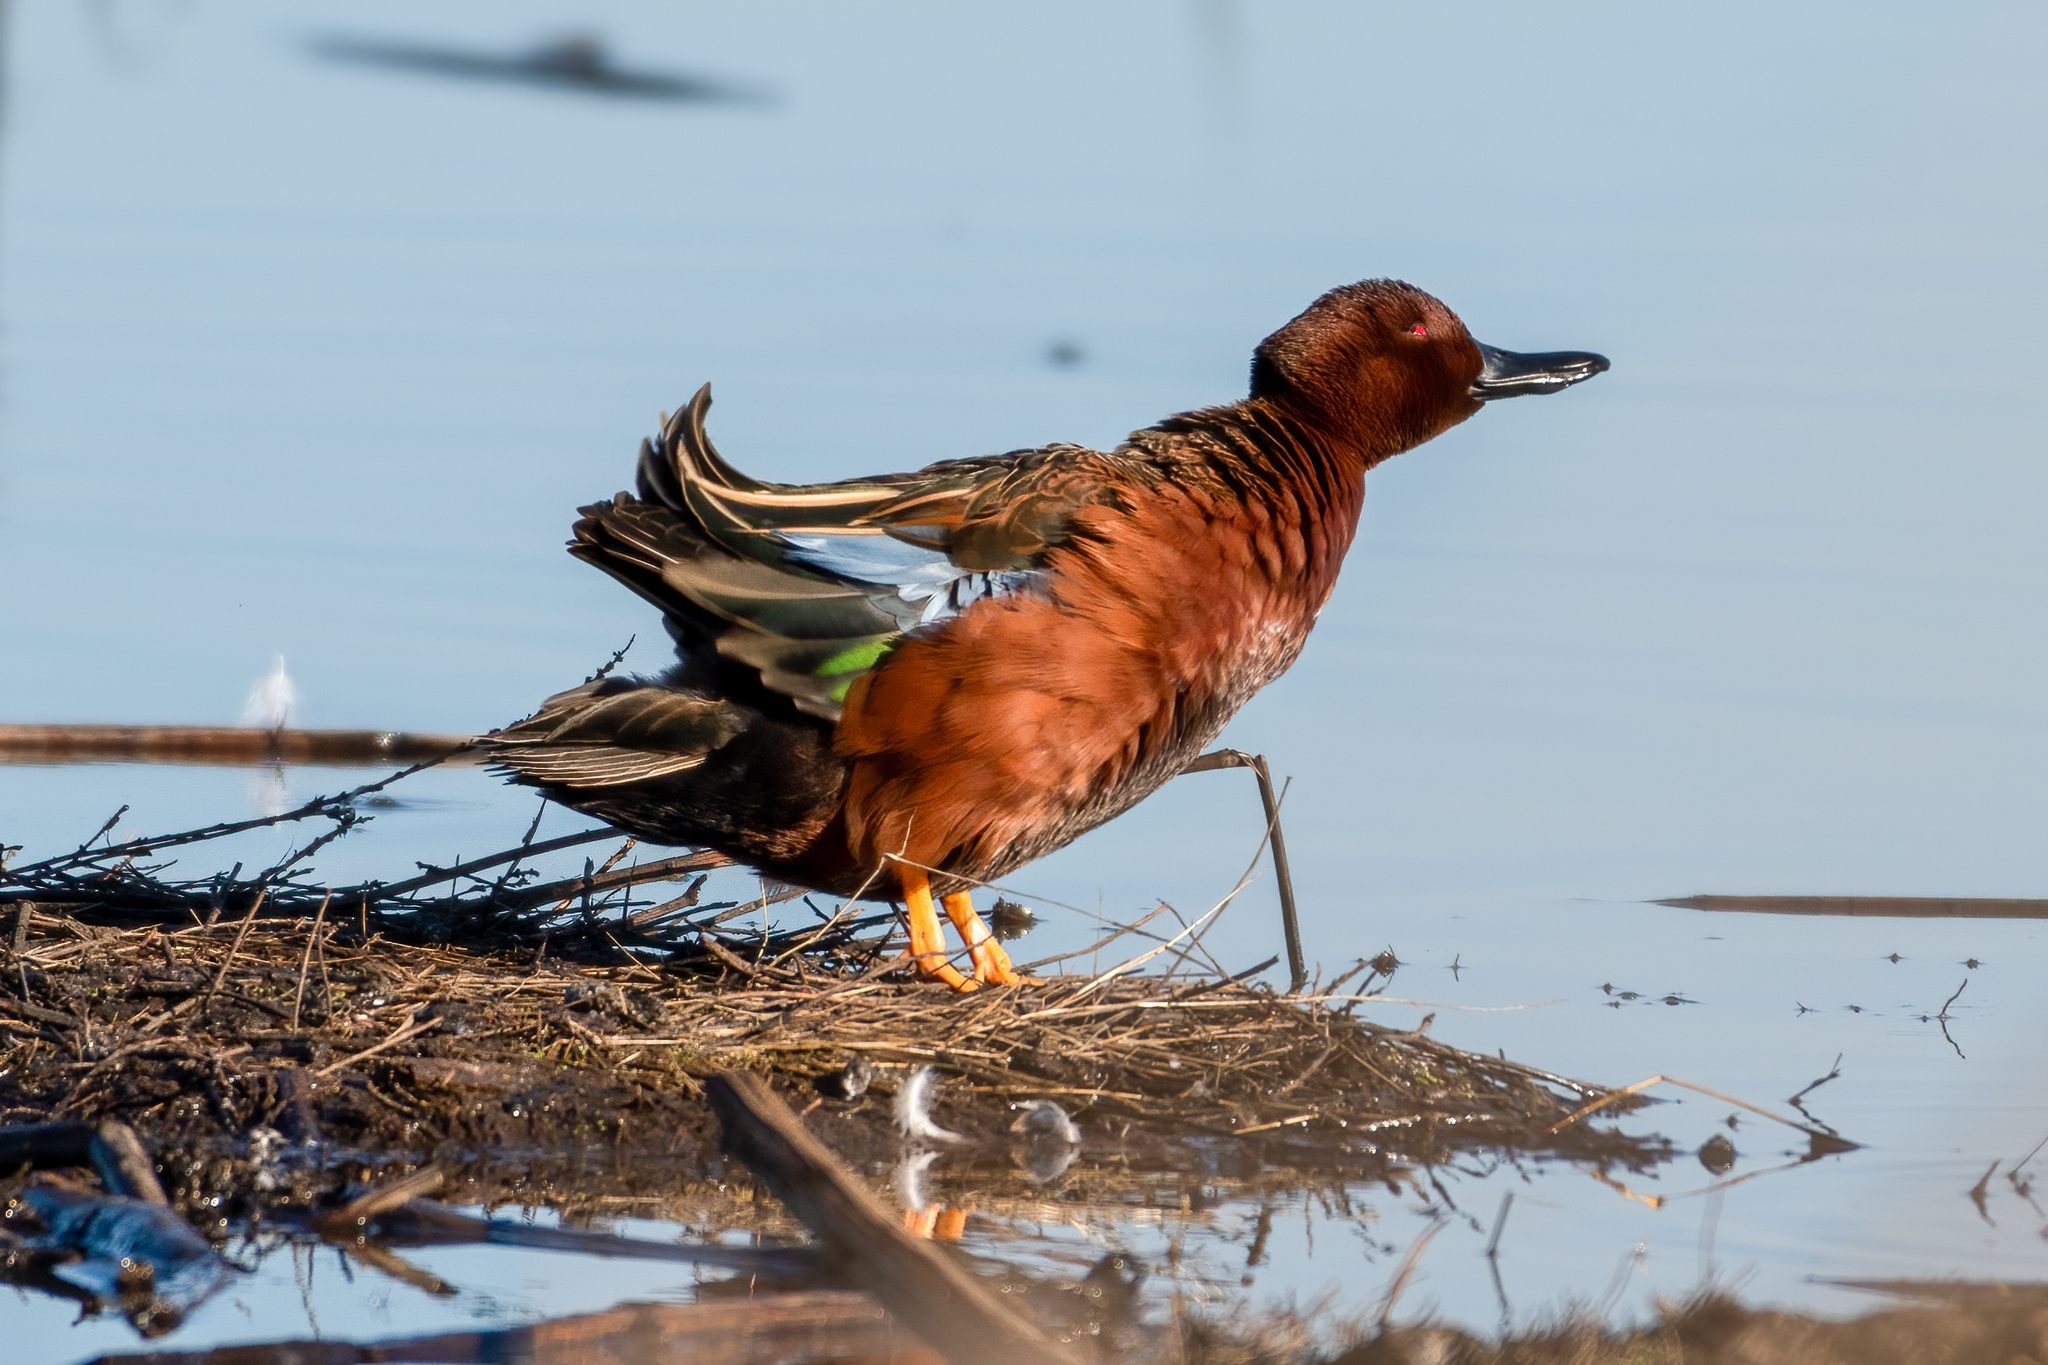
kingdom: Animalia
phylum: Chordata
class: Aves
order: Anseriformes
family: Anatidae
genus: Spatula
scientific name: Spatula cyanoptera
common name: Cinnamon teal
